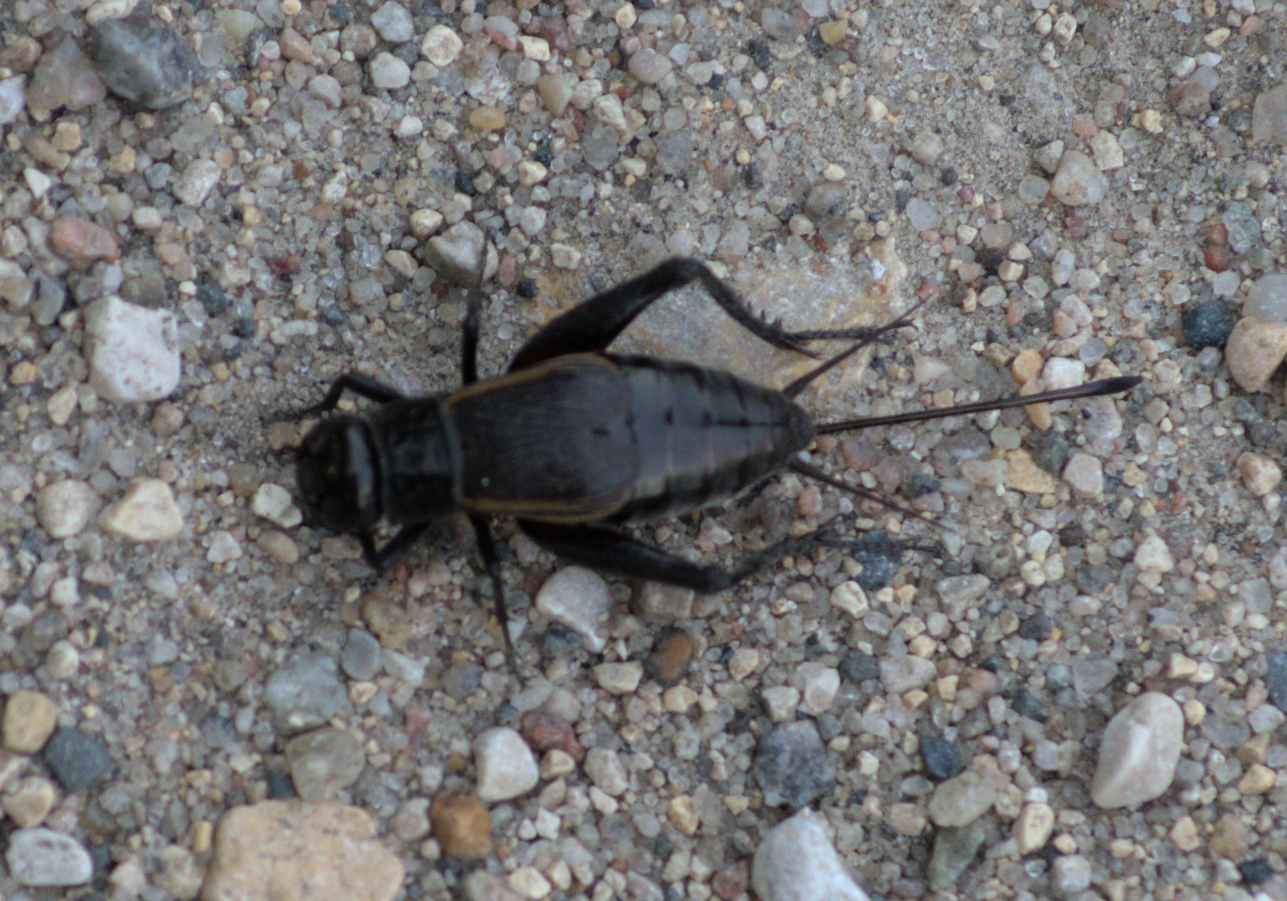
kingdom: Animalia
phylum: Arthropoda
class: Insecta
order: Orthoptera
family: Gryllidae
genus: Gryllus
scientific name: Gryllus pennsylvanicus
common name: Fall field cricket
